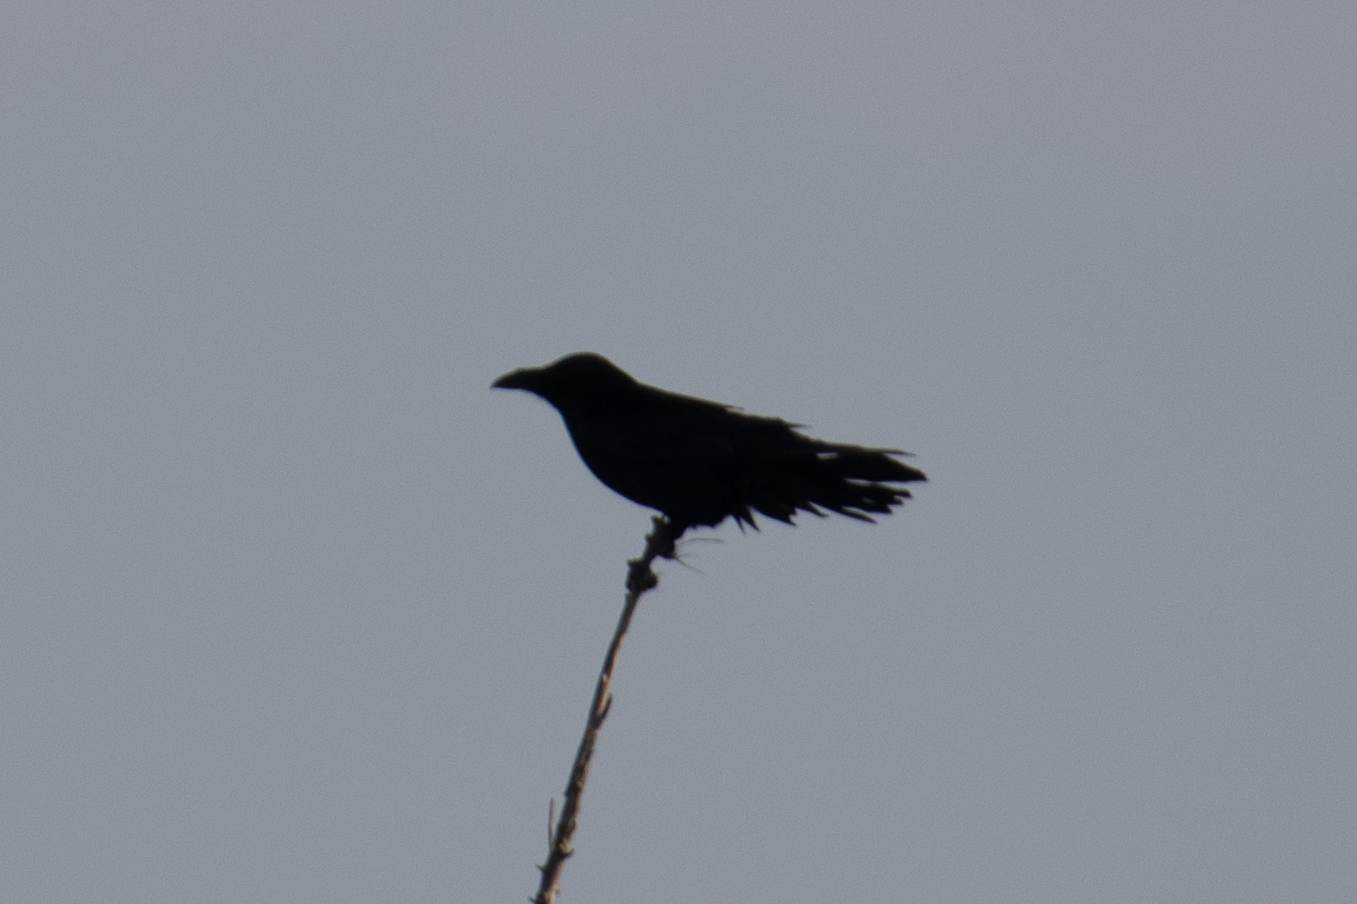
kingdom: Animalia
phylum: Chordata
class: Aves
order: Passeriformes
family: Corvidae
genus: Corvus
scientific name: Corvus corax
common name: Common raven
